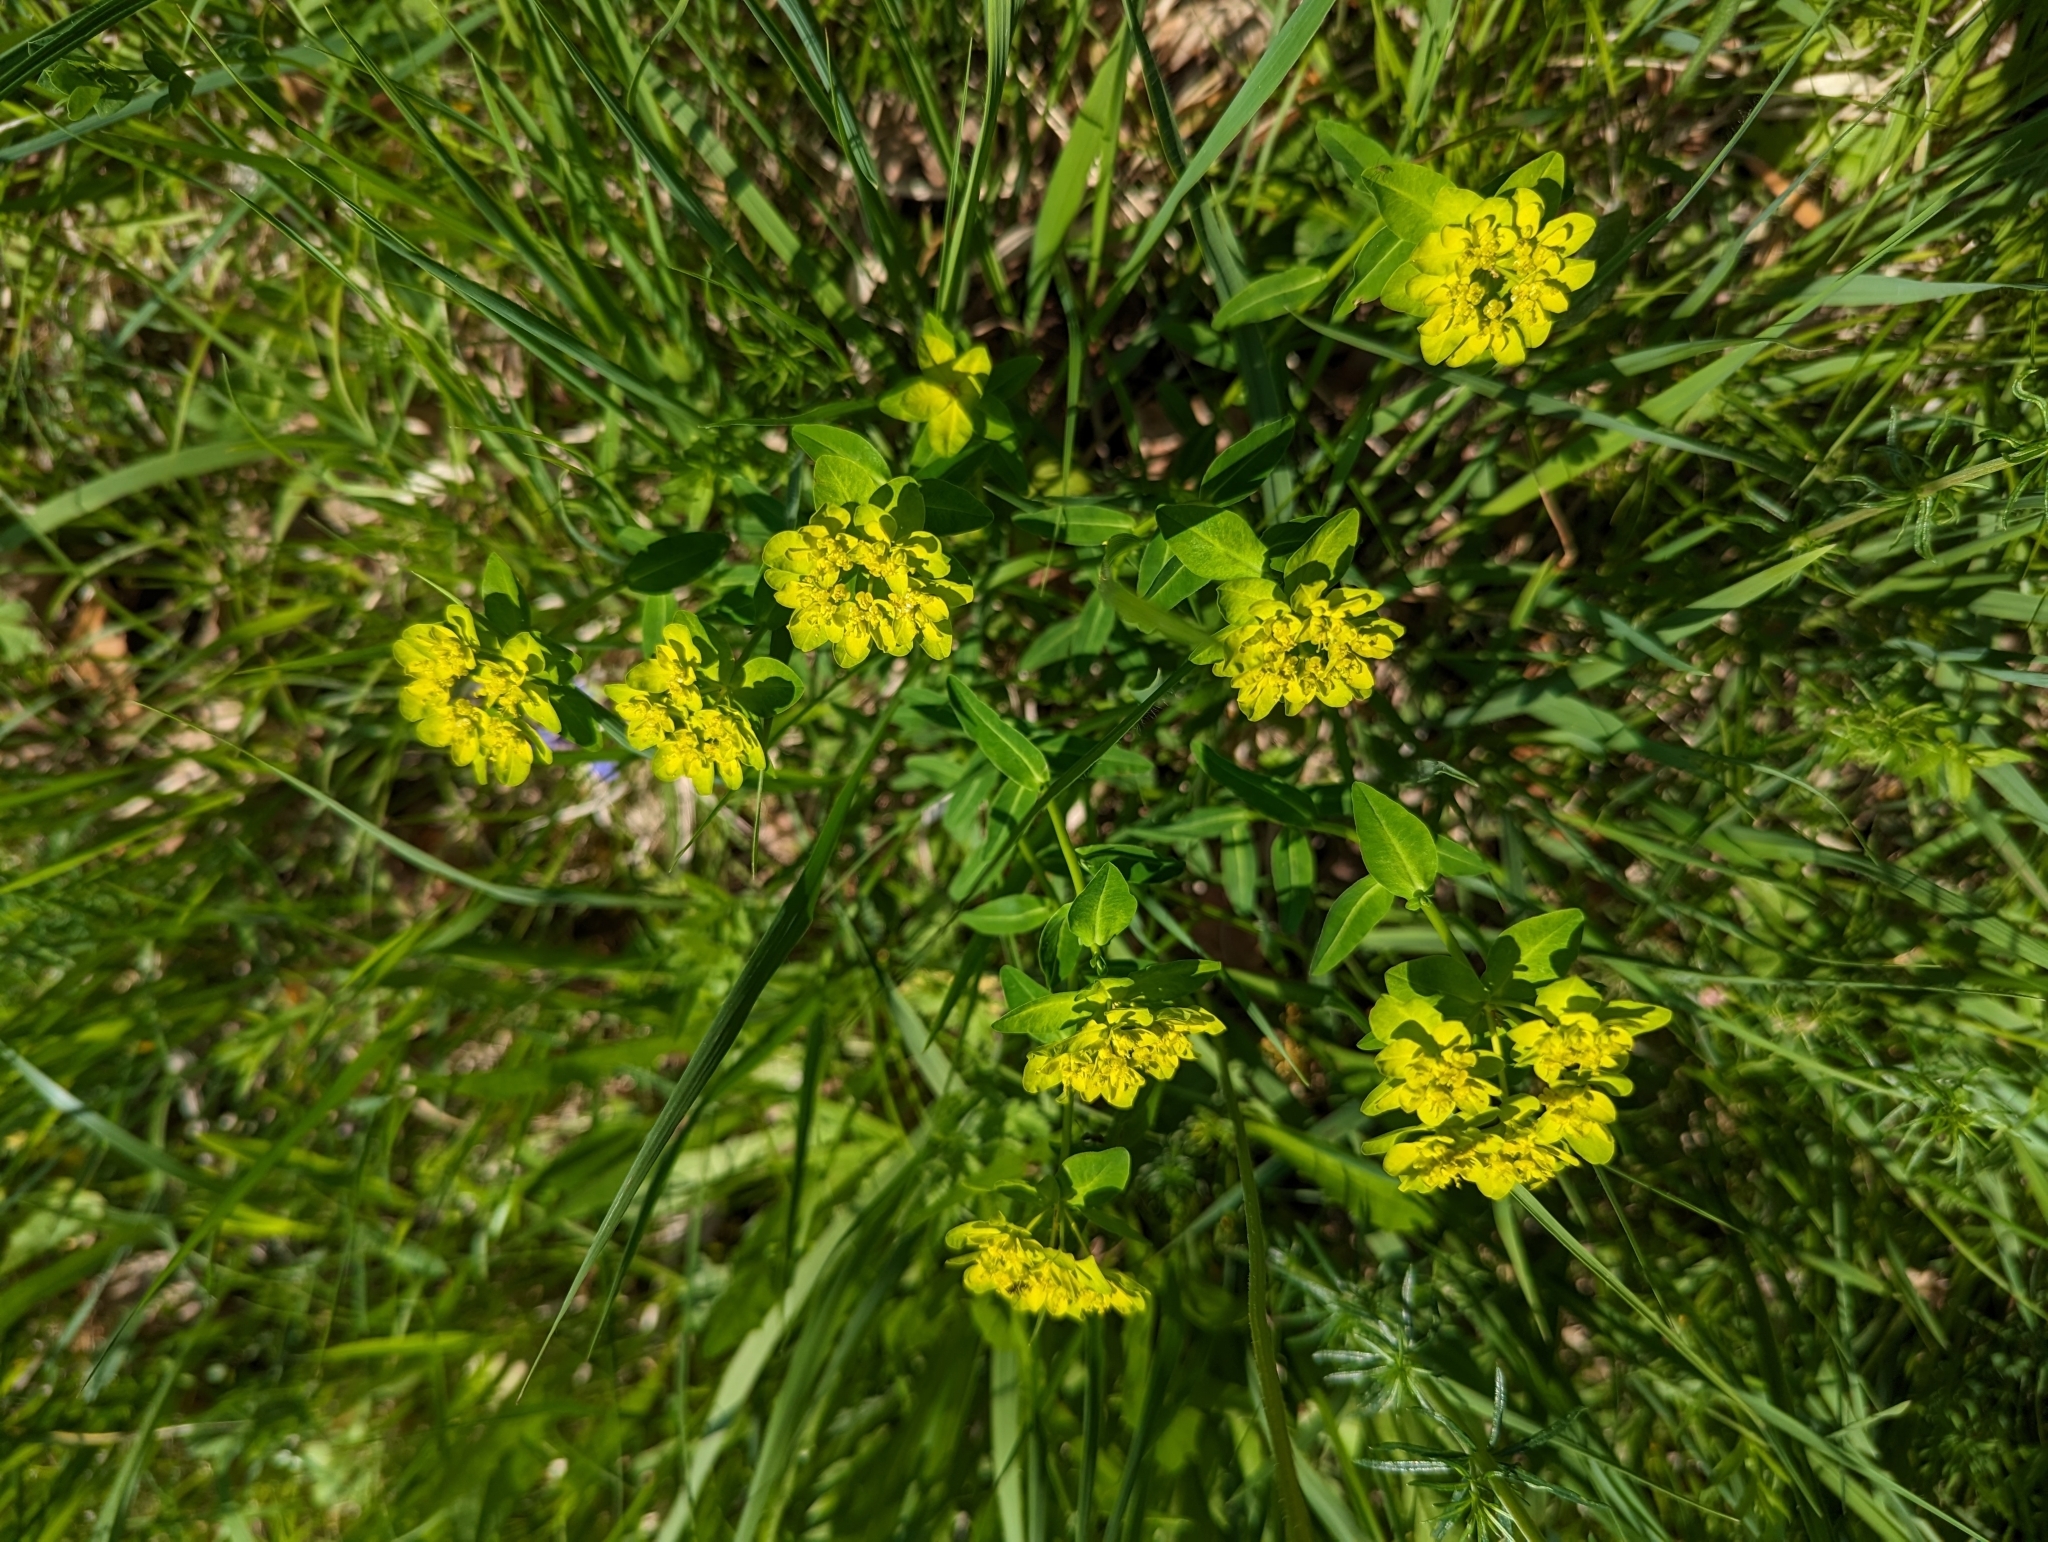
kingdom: Plantae
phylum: Tracheophyta
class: Magnoliopsida
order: Malpighiales
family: Euphorbiaceae
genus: Euphorbia
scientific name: Euphorbia verrucosa
